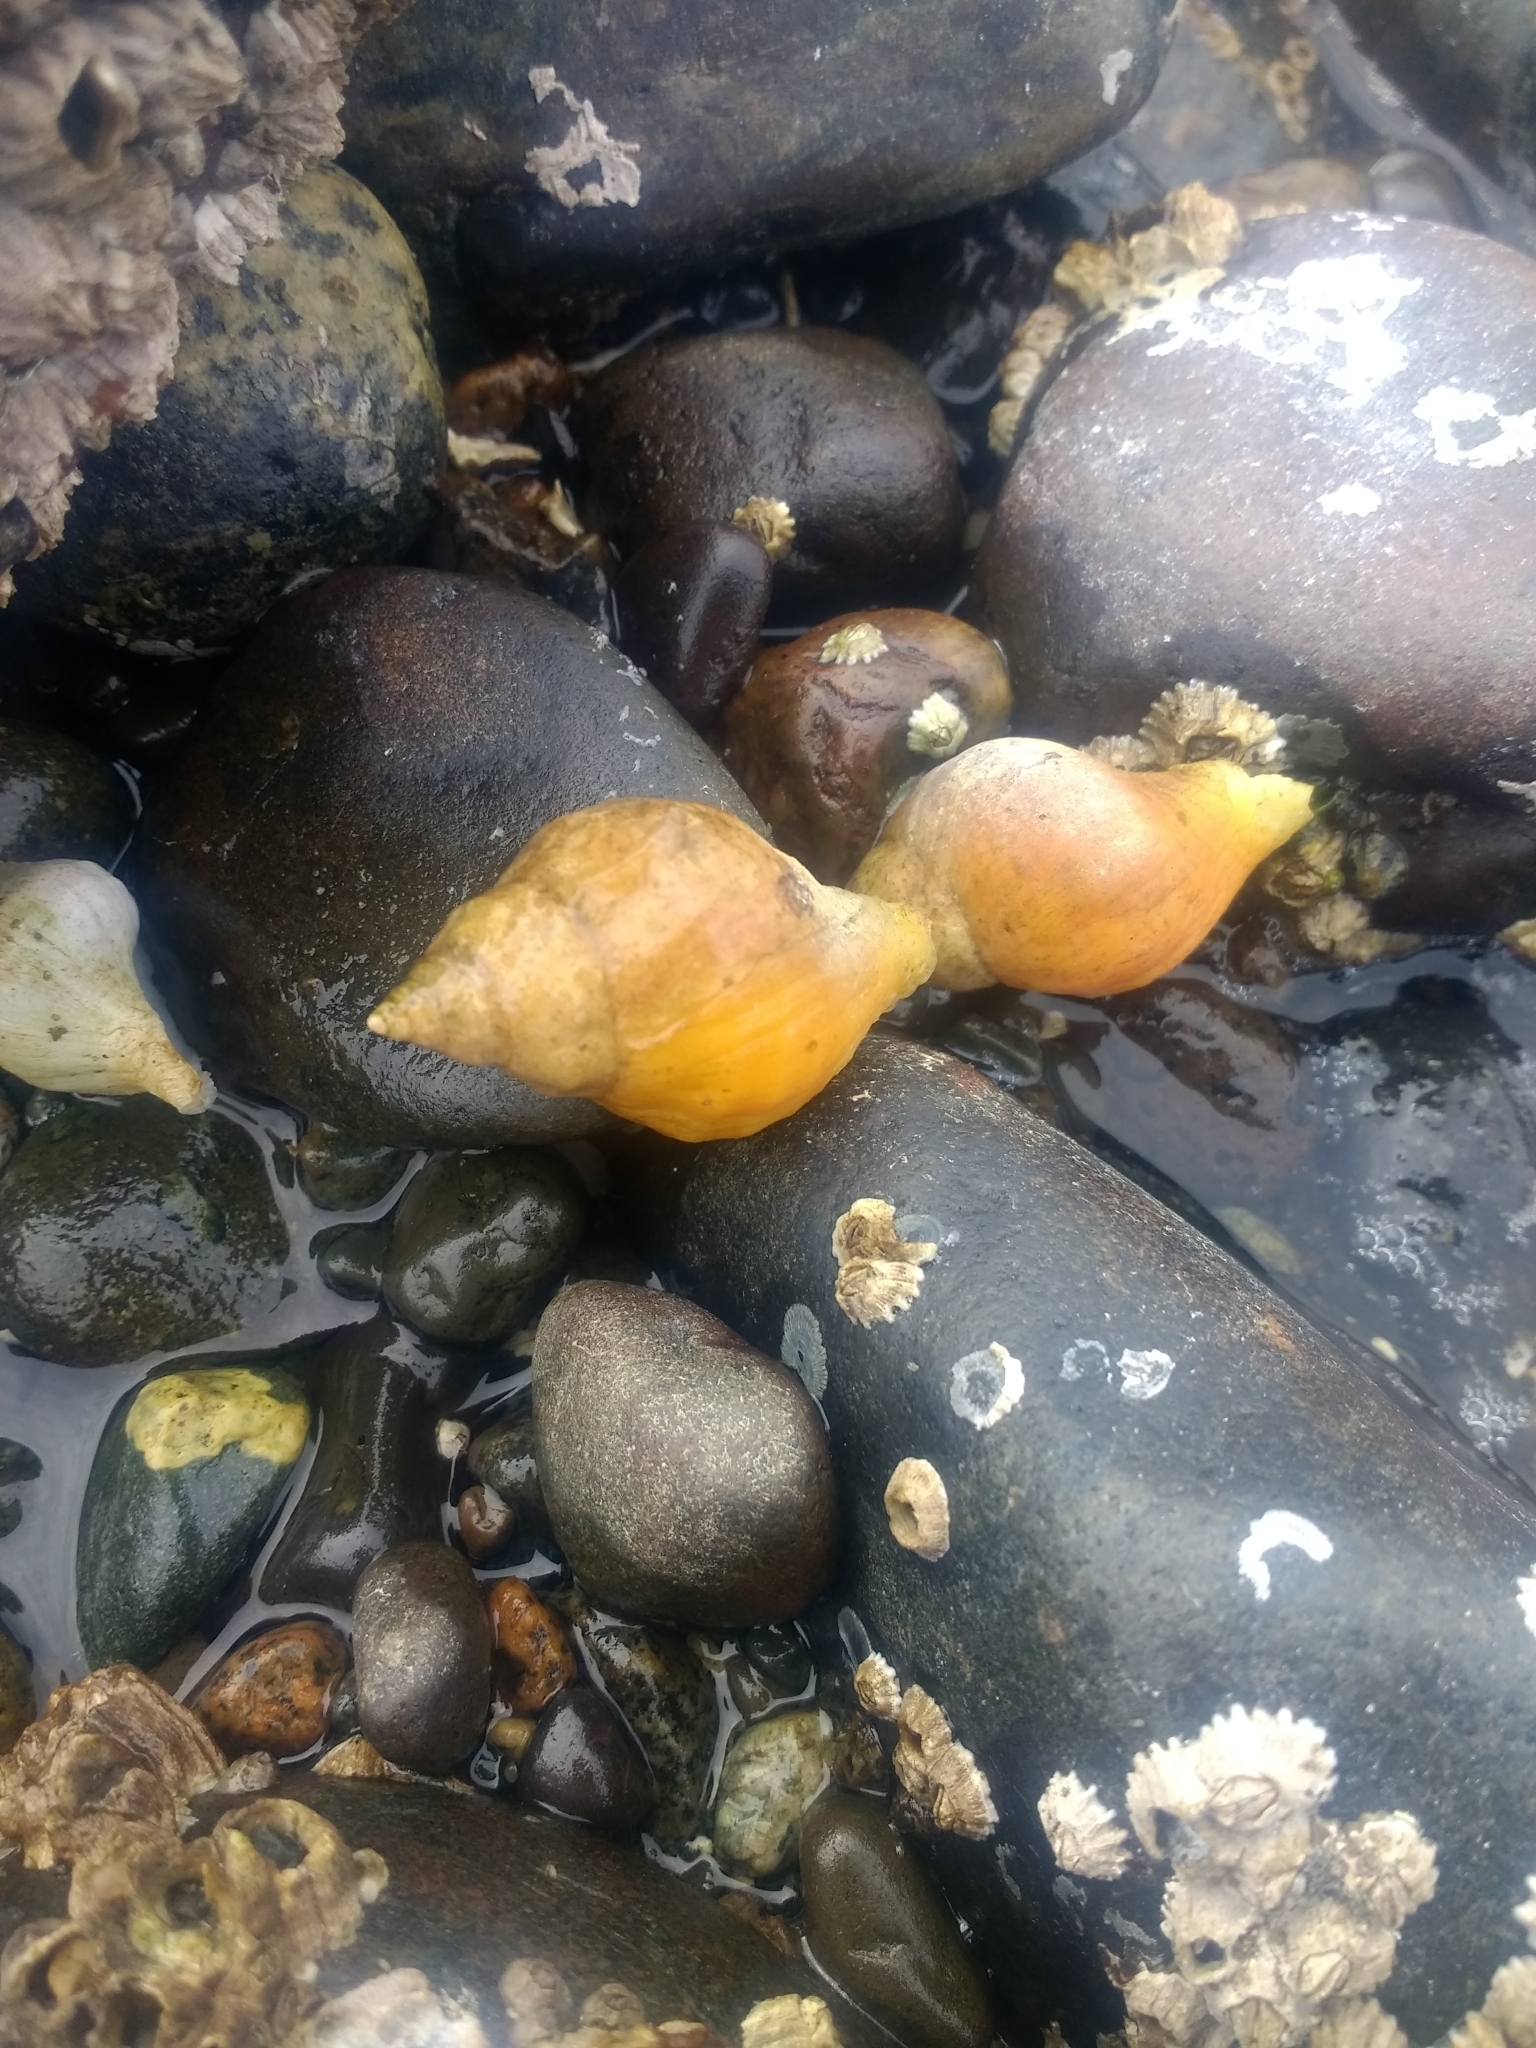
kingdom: Animalia
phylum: Mollusca
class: Gastropoda
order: Neogastropoda
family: Muricidae
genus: Nucella
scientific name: Nucella lamellosa
